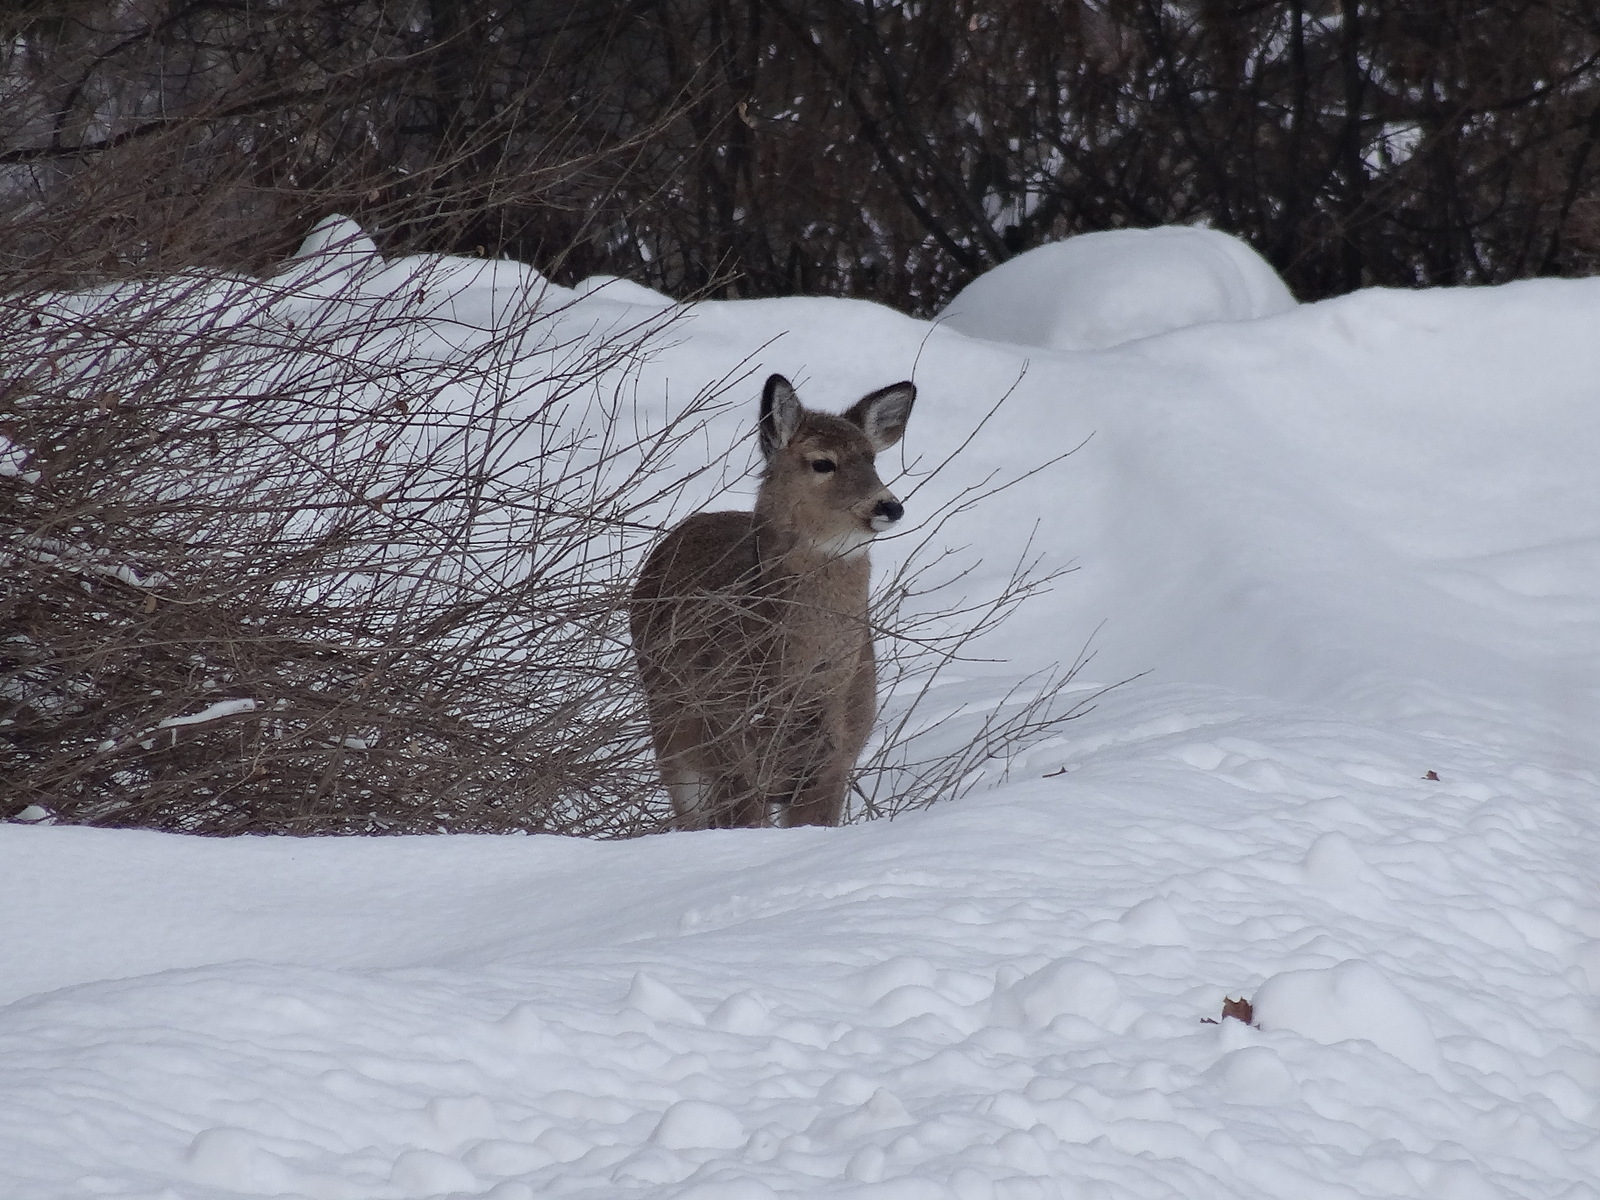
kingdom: Animalia
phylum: Chordata
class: Mammalia
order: Artiodactyla
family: Cervidae
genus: Odocoileus
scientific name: Odocoileus virginianus
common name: White-tailed deer
